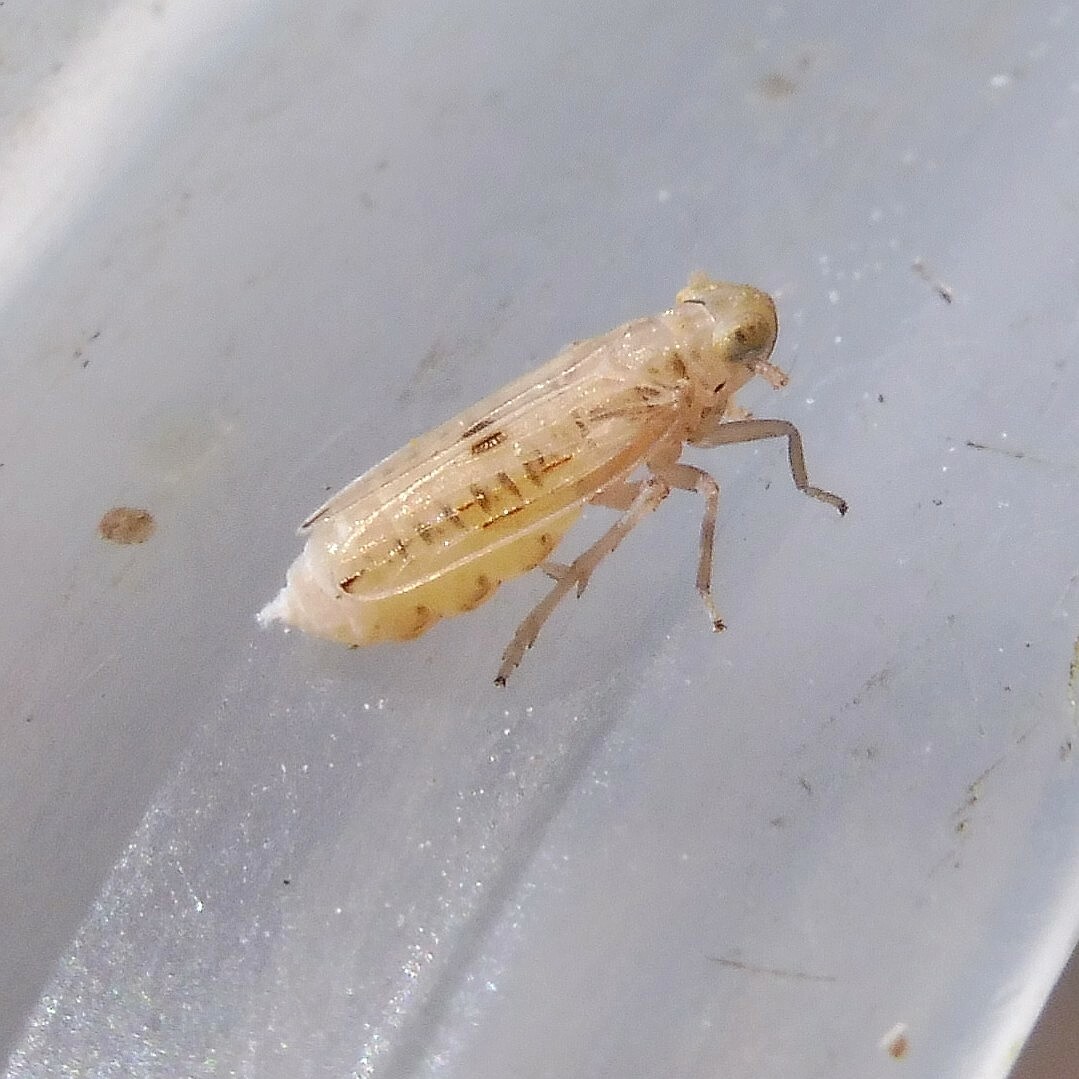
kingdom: Animalia
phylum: Arthropoda
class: Insecta
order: Hemiptera
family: Delphacidae
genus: Anakelisia
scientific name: Anakelisia fasciata
